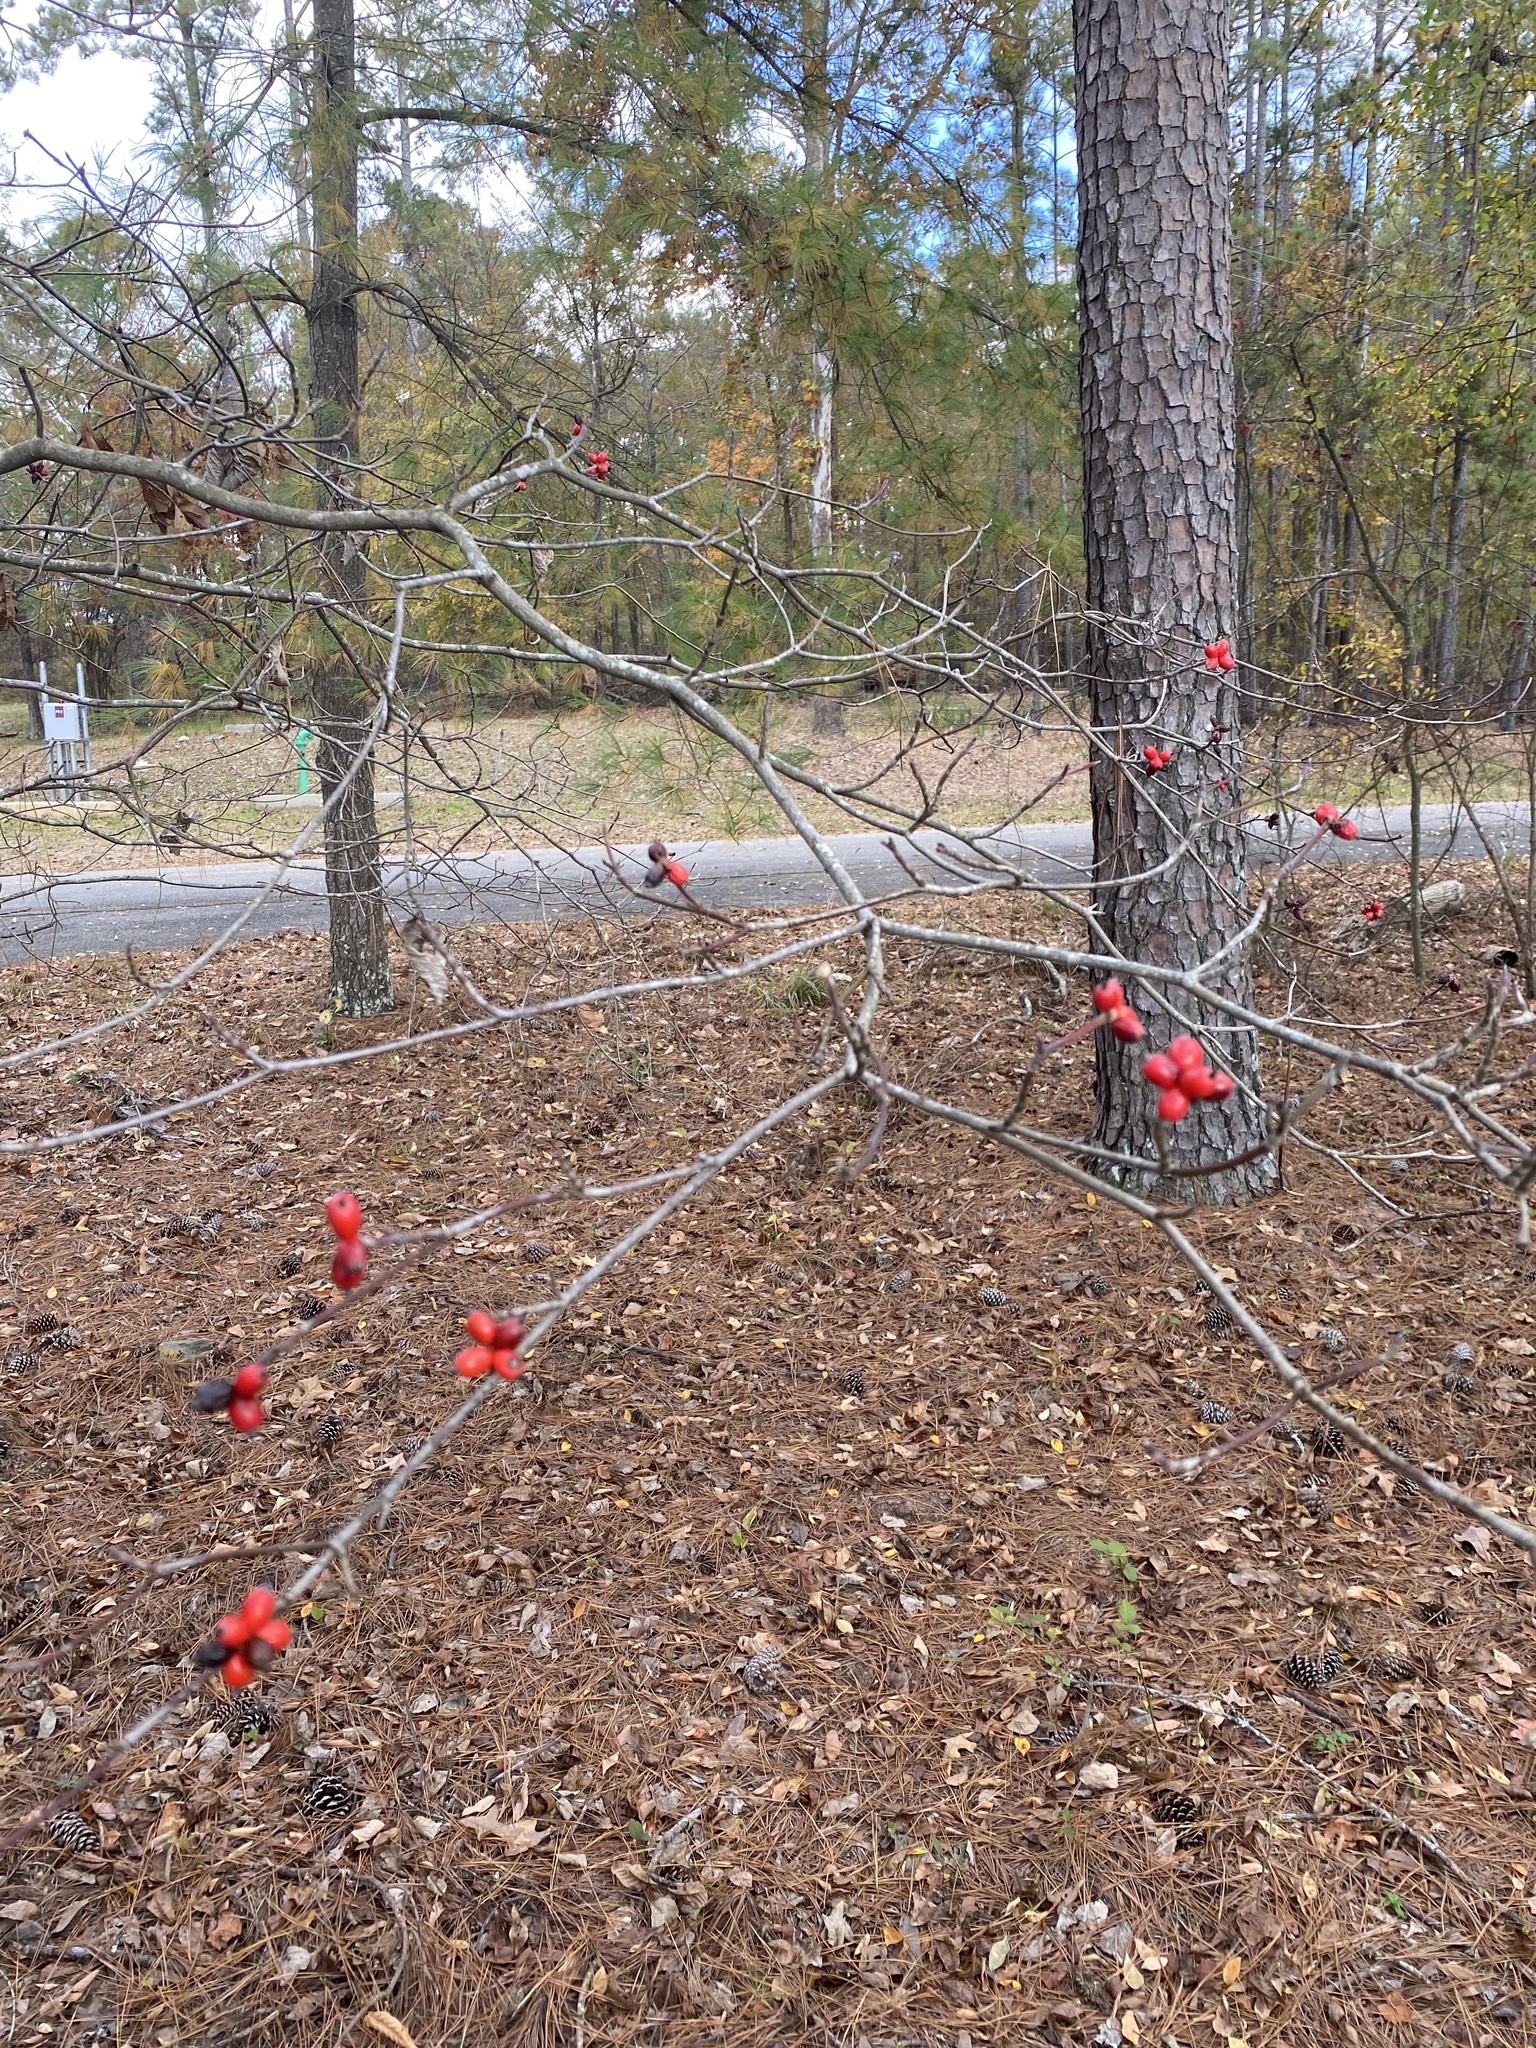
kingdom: Plantae
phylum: Tracheophyta
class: Magnoliopsida
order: Cornales
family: Cornaceae
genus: Cornus
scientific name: Cornus florida
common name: Flowering dogwood
